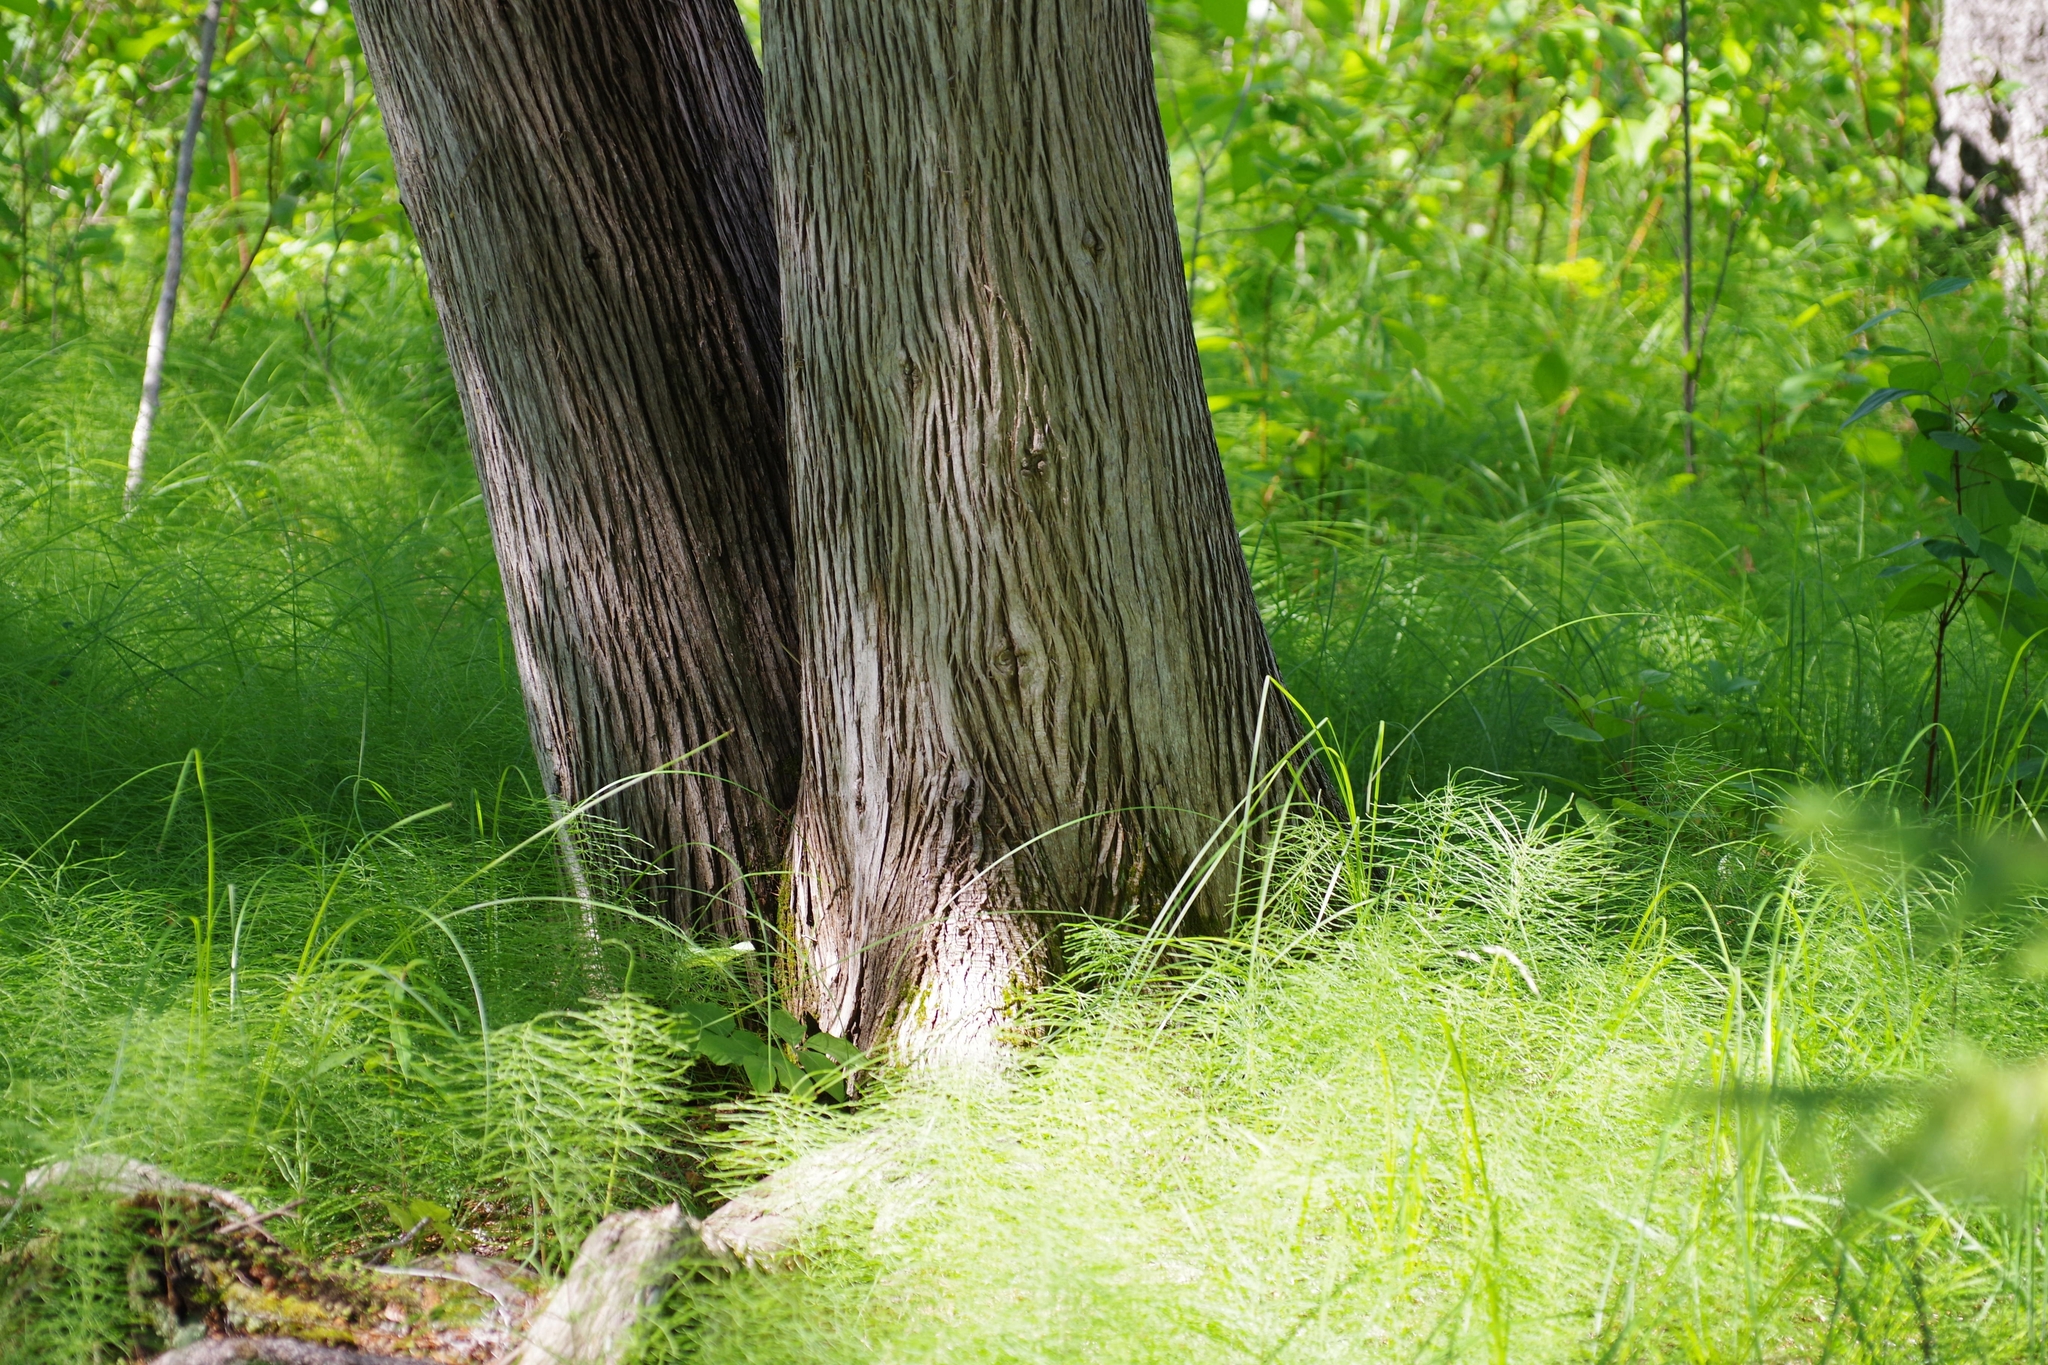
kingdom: Plantae
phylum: Tracheophyta
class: Pinopsida
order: Pinales
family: Cupressaceae
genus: Thuja
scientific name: Thuja occidentalis
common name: Northern white-cedar
